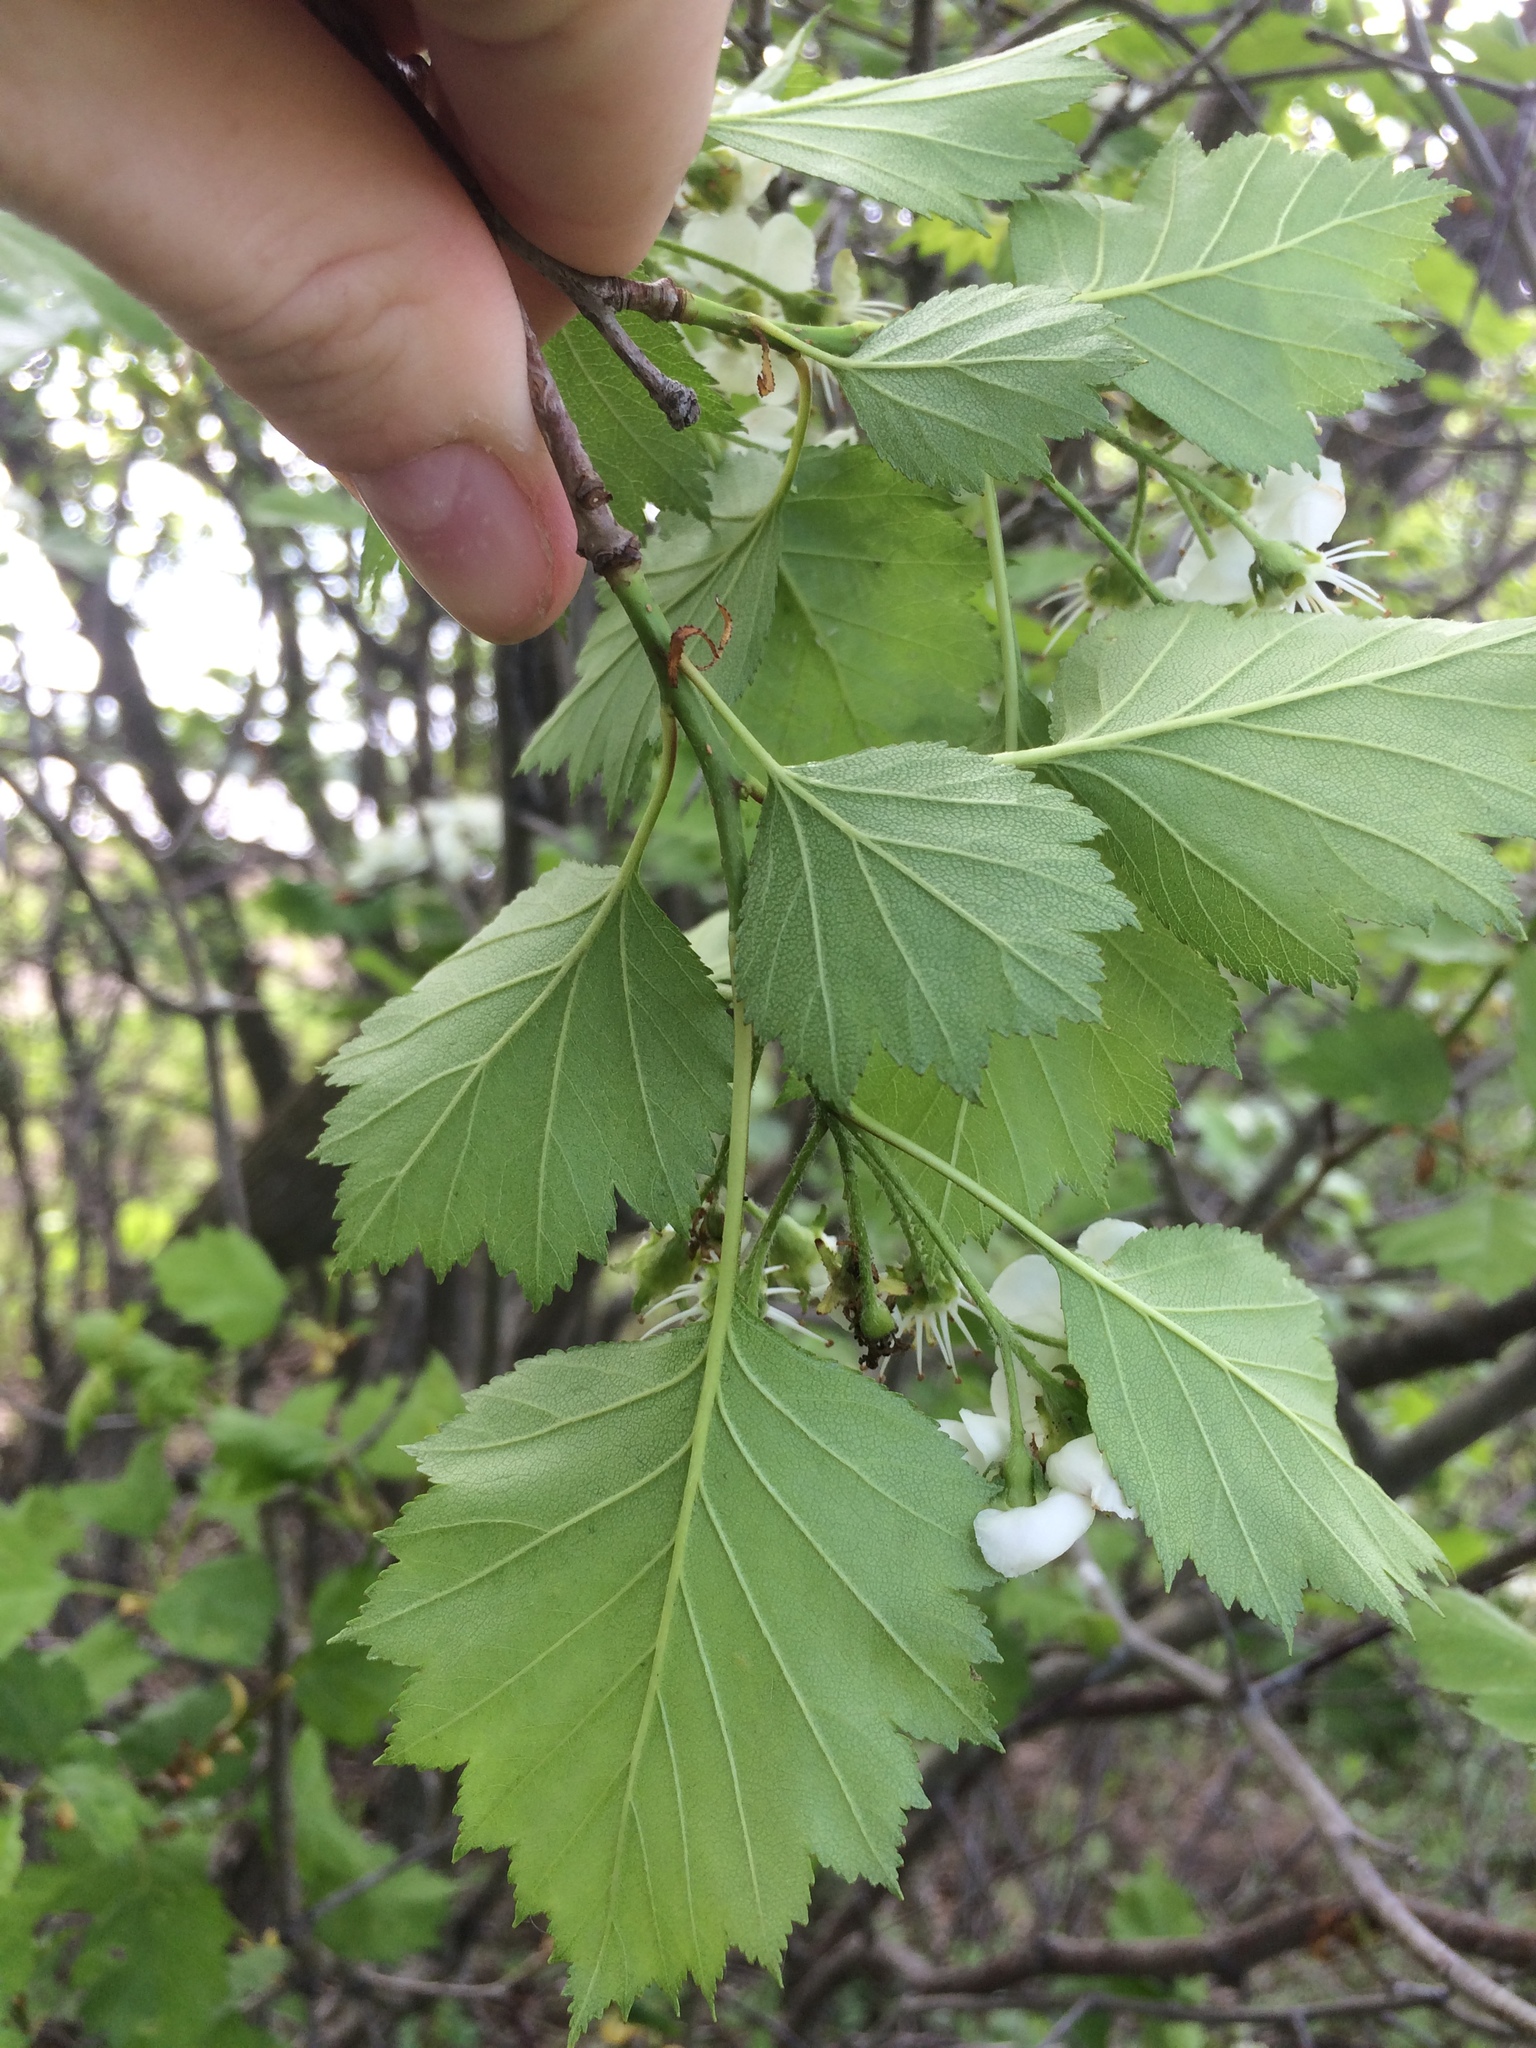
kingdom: Plantae
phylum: Tracheophyta
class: Magnoliopsida
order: Rosales
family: Rosaceae
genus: Crataegus
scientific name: Crataegus irrasa
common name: Unshorn hawthorn
